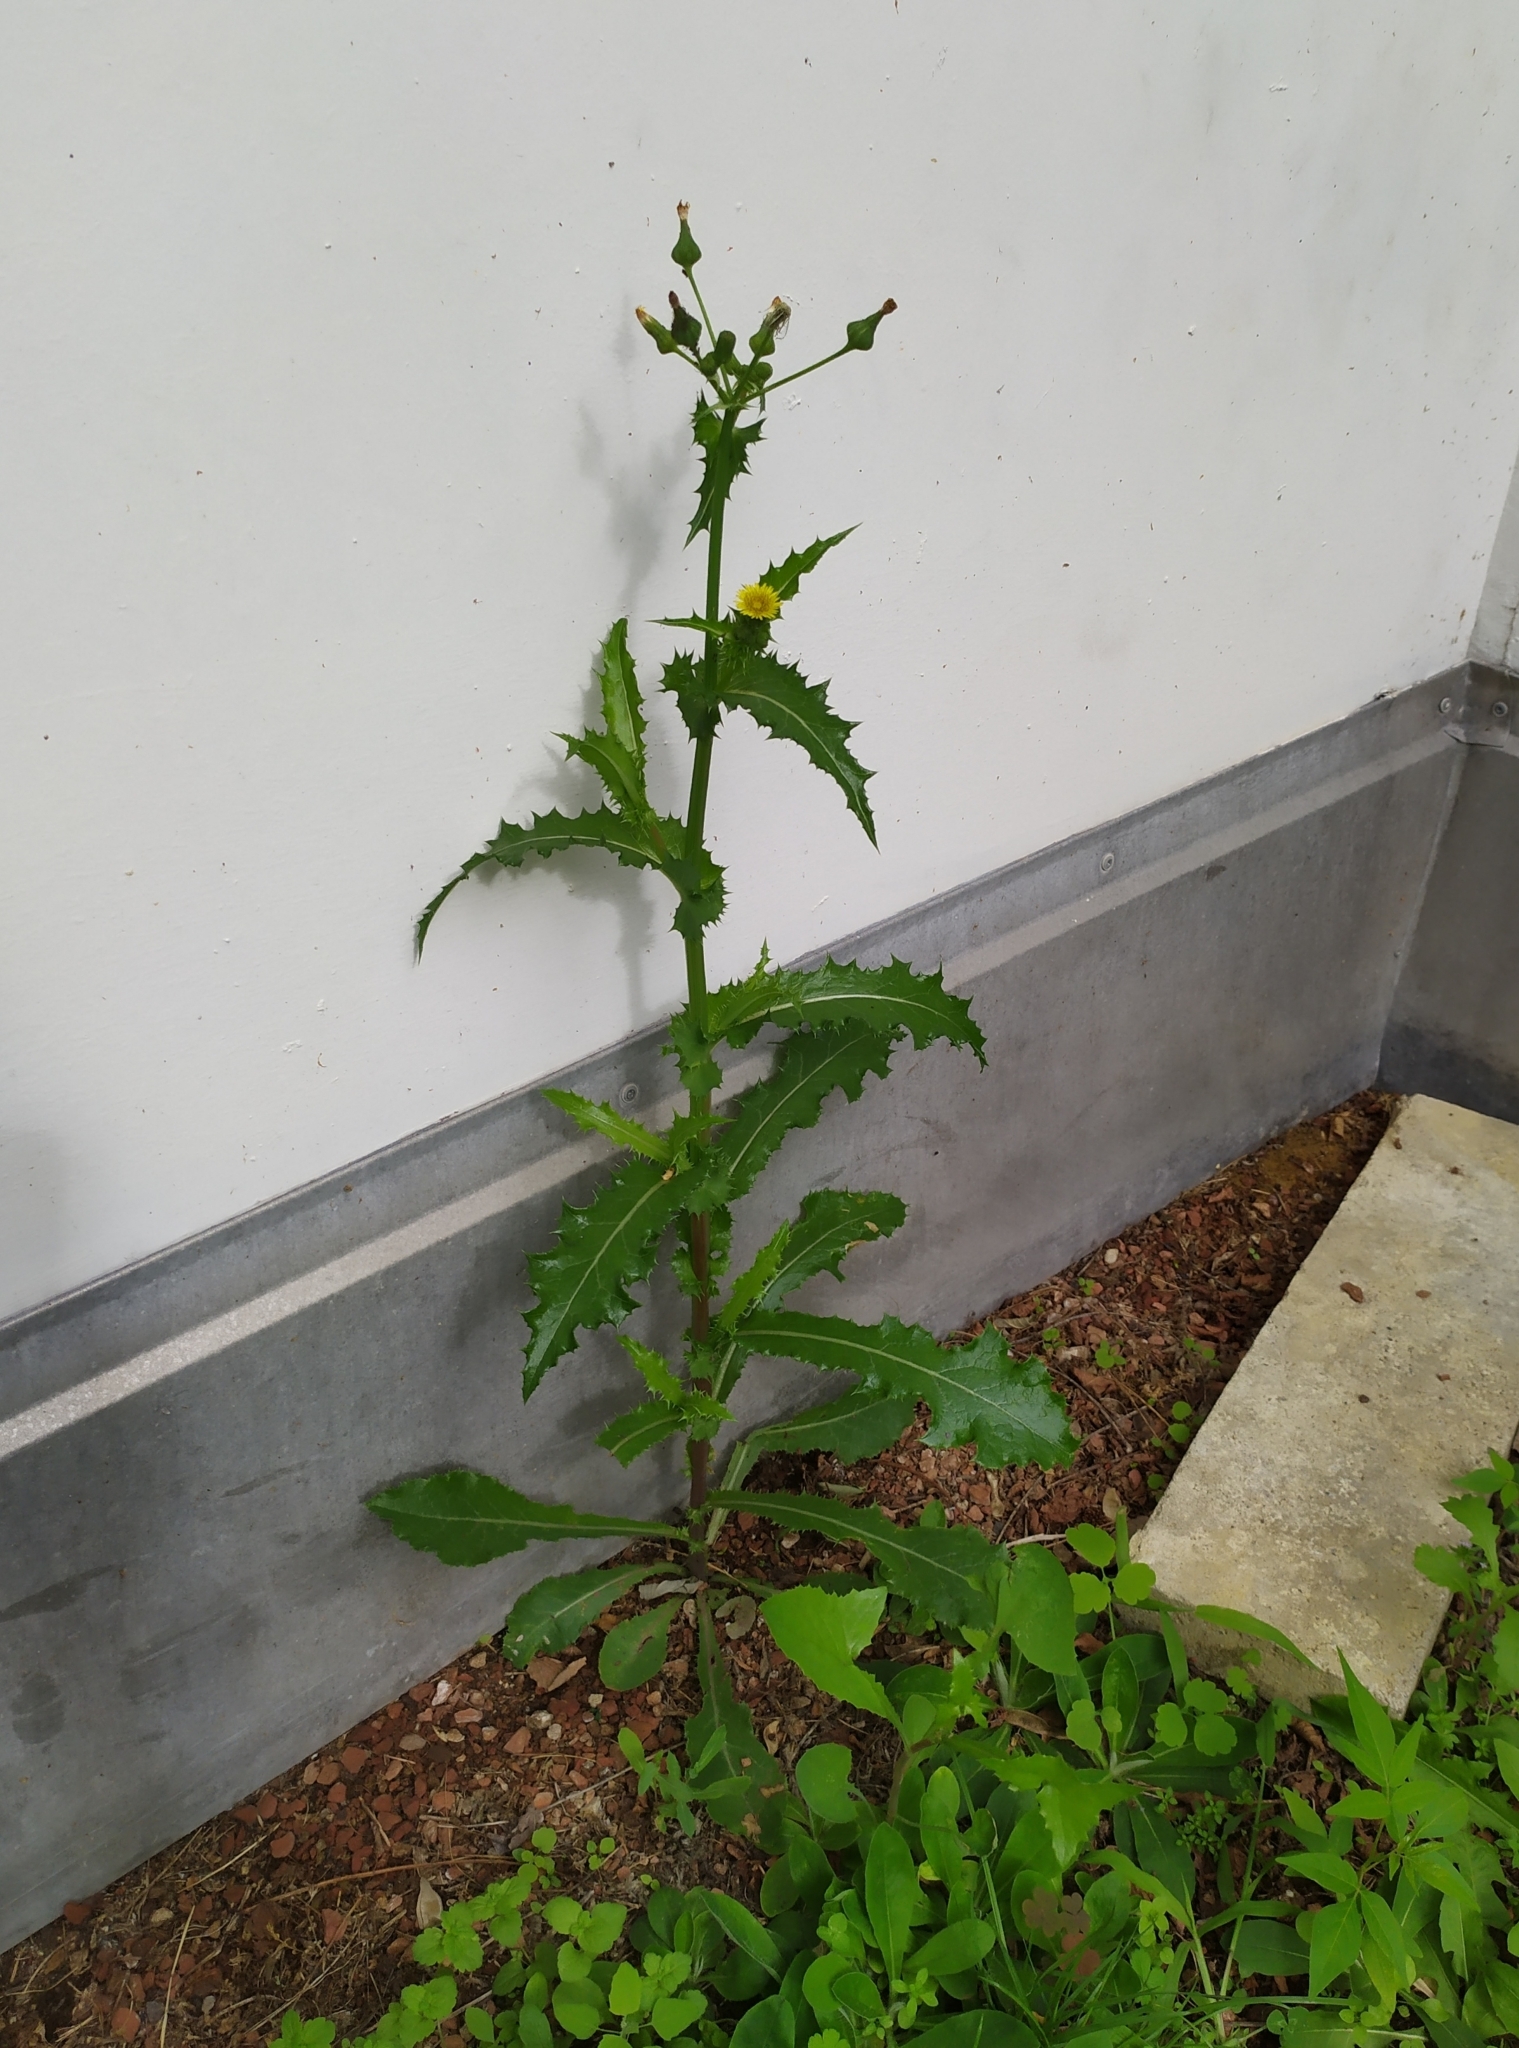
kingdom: Plantae
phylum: Tracheophyta
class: Magnoliopsida
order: Asterales
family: Asteraceae
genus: Sonchus
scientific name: Sonchus oleraceus
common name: Common sowthistle
